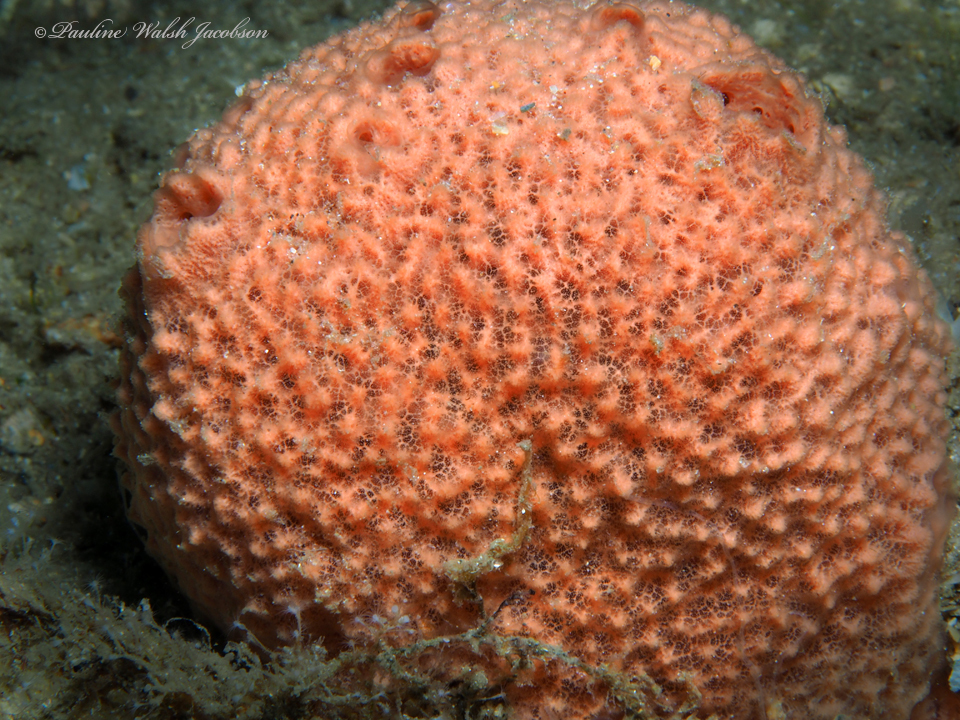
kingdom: Animalia
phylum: Porifera
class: Demospongiae
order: Haplosclerida
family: Niphatidae
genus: Amphimedon
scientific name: Amphimedon compressa
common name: Red sponge
